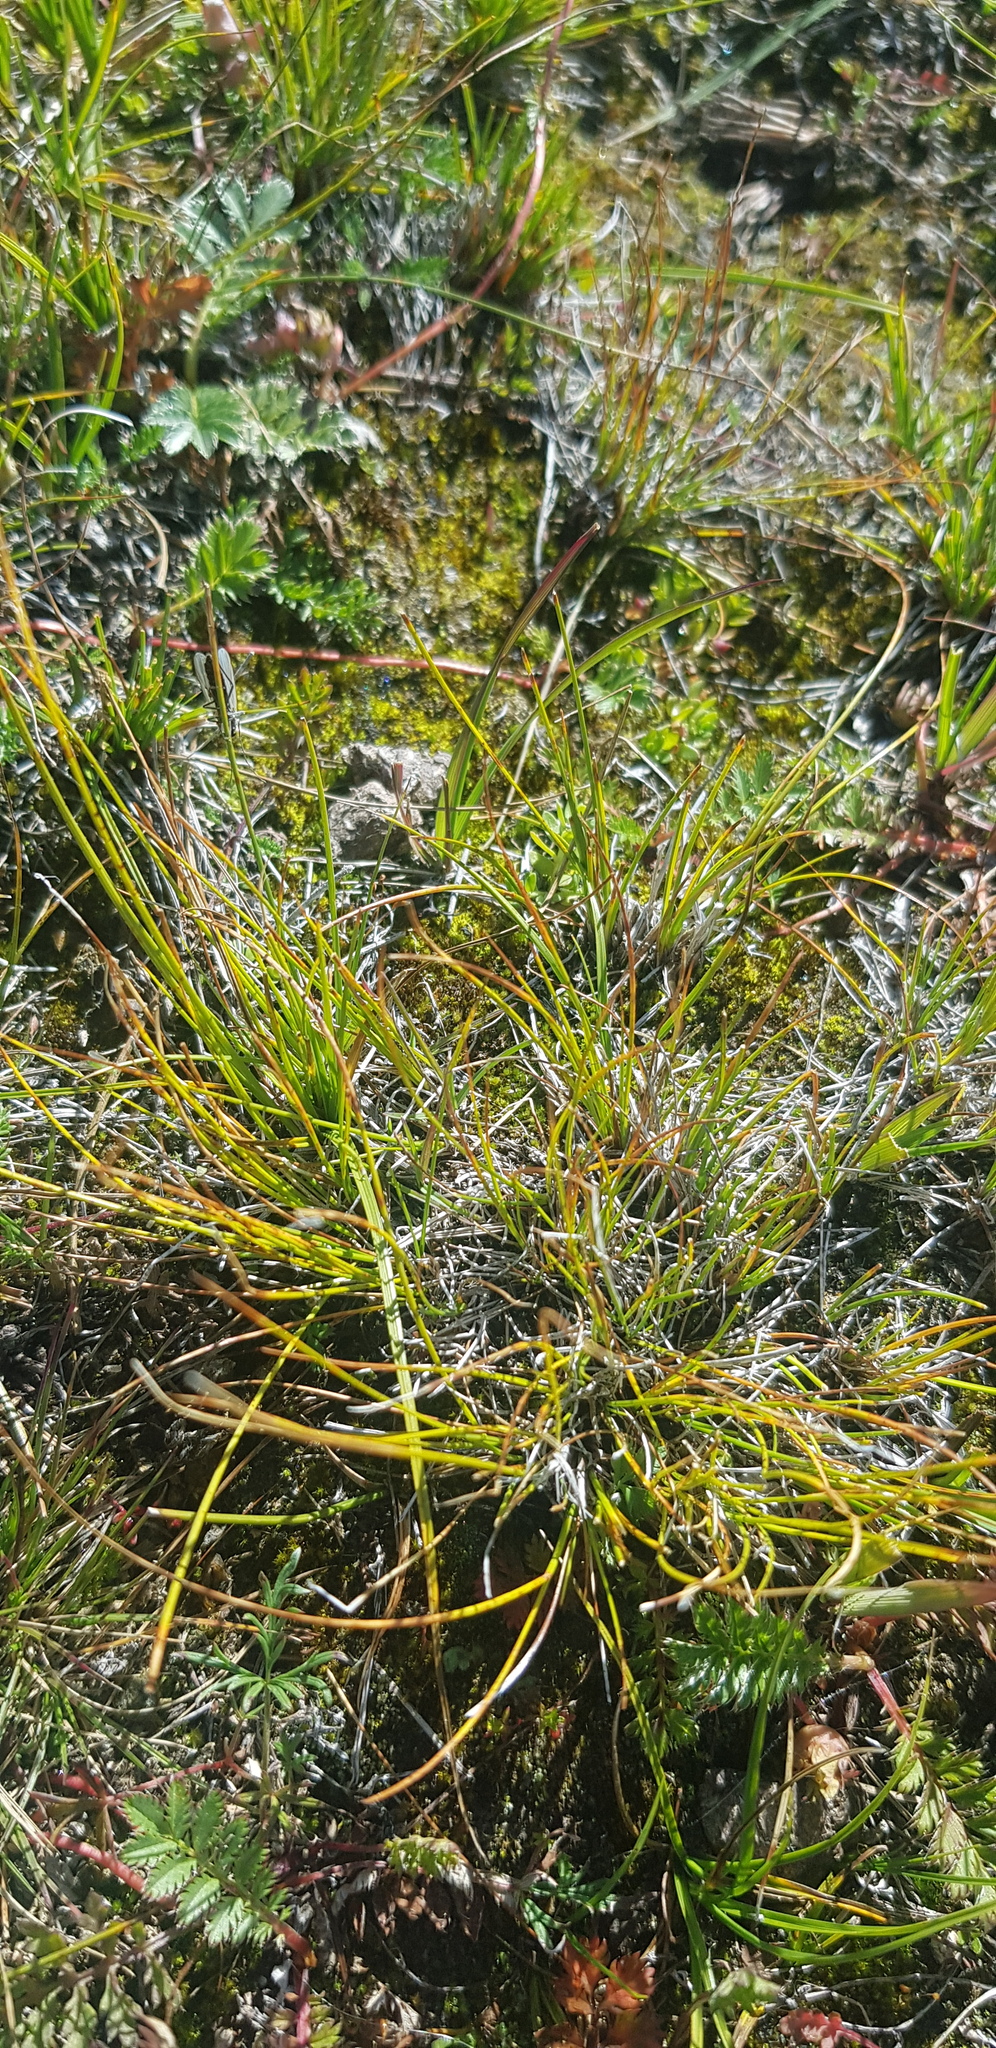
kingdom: Plantae
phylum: Tracheophyta
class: Liliopsida
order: Poales
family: Cyperaceae
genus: Carex
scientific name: Carex borealipolaris
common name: Siberian bog sedge
